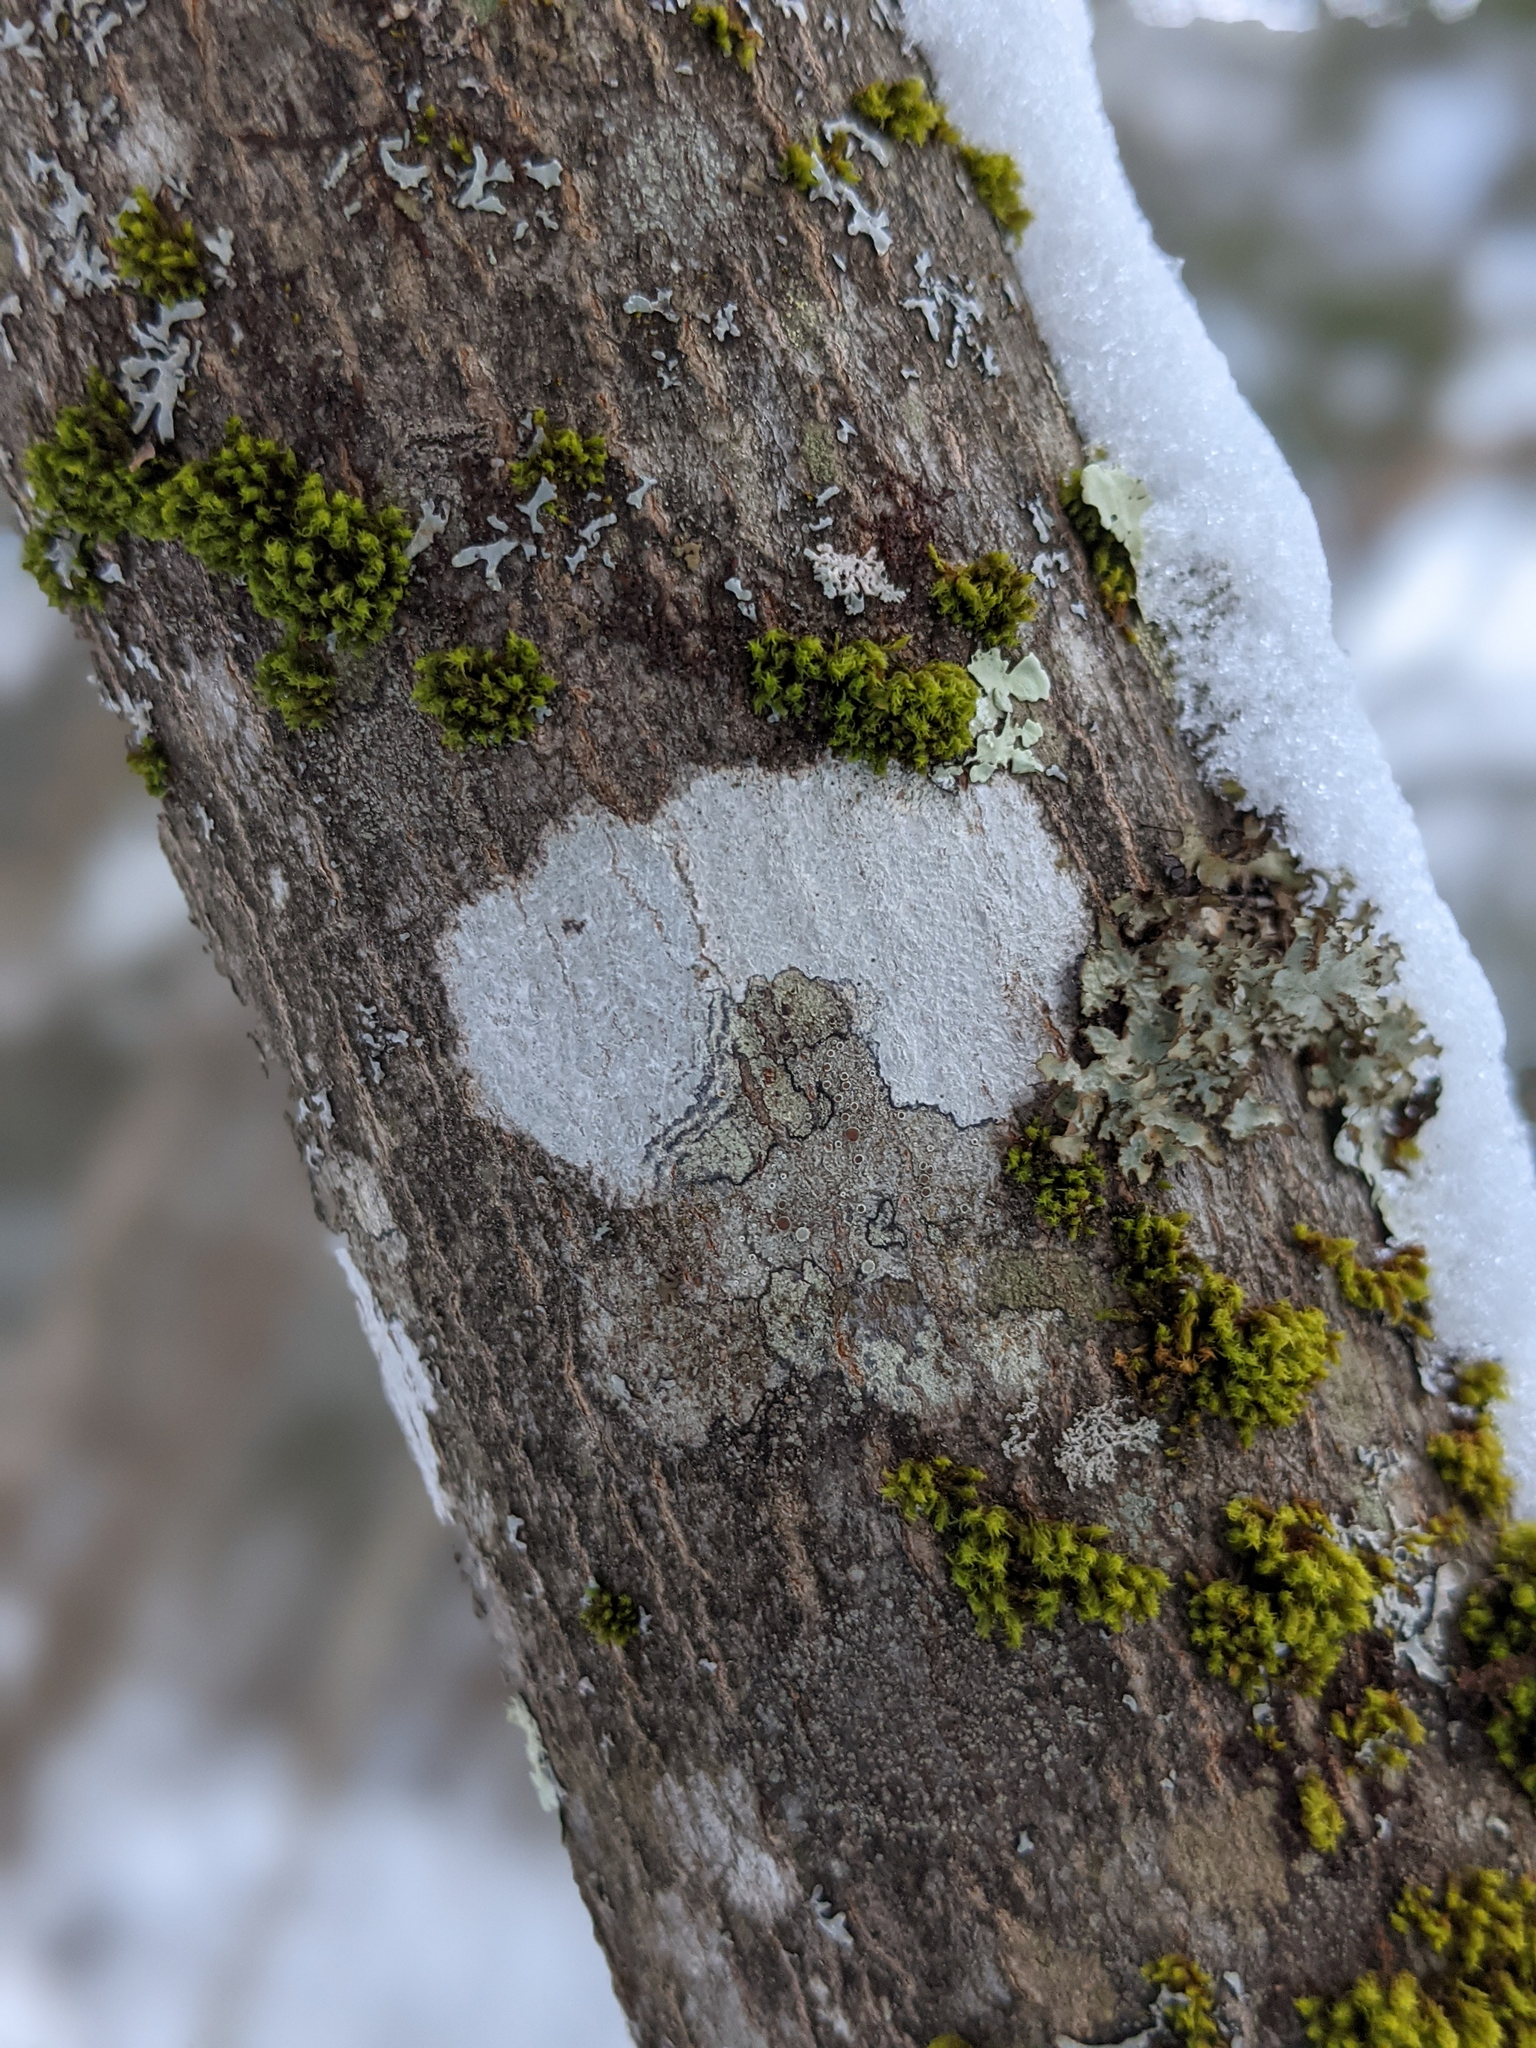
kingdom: Plantae
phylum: Bryophyta
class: Bryopsida
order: Orthotrichales
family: Orthotrichaceae
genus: Ulota
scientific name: Ulota crispa
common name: Crisped pincushion moss
